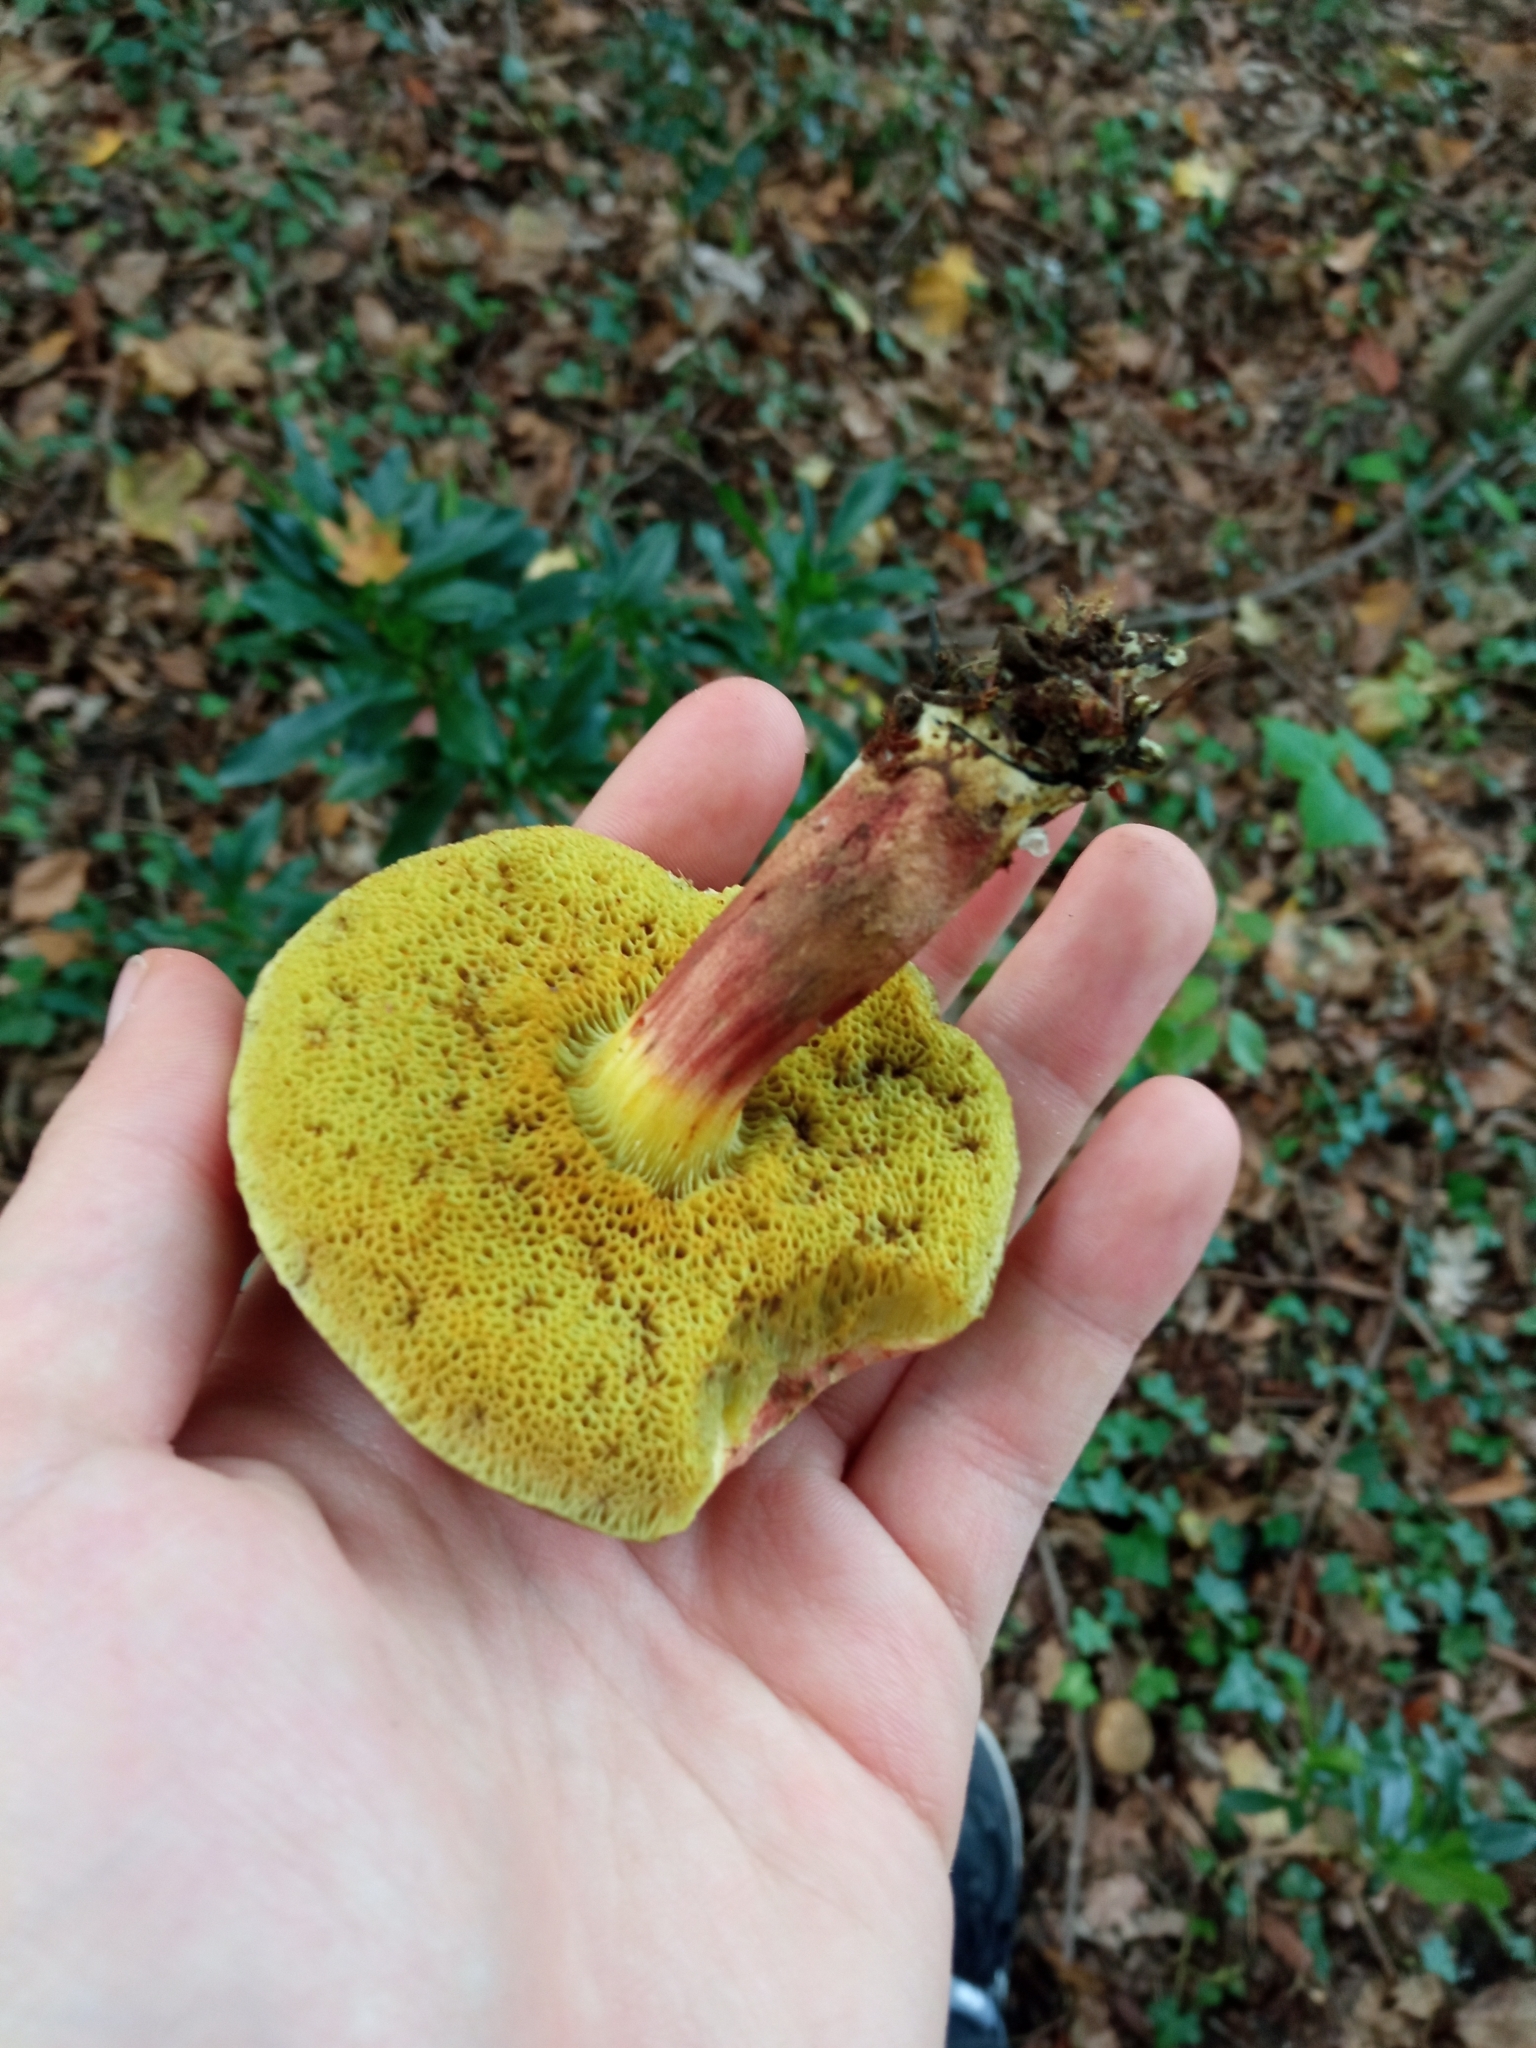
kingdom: Fungi
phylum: Basidiomycota
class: Agaricomycetes
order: Boletales
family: Boletaceae
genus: Xerocomellus
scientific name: Xerocomellus chrysenteron
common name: Red-cracking bolete
